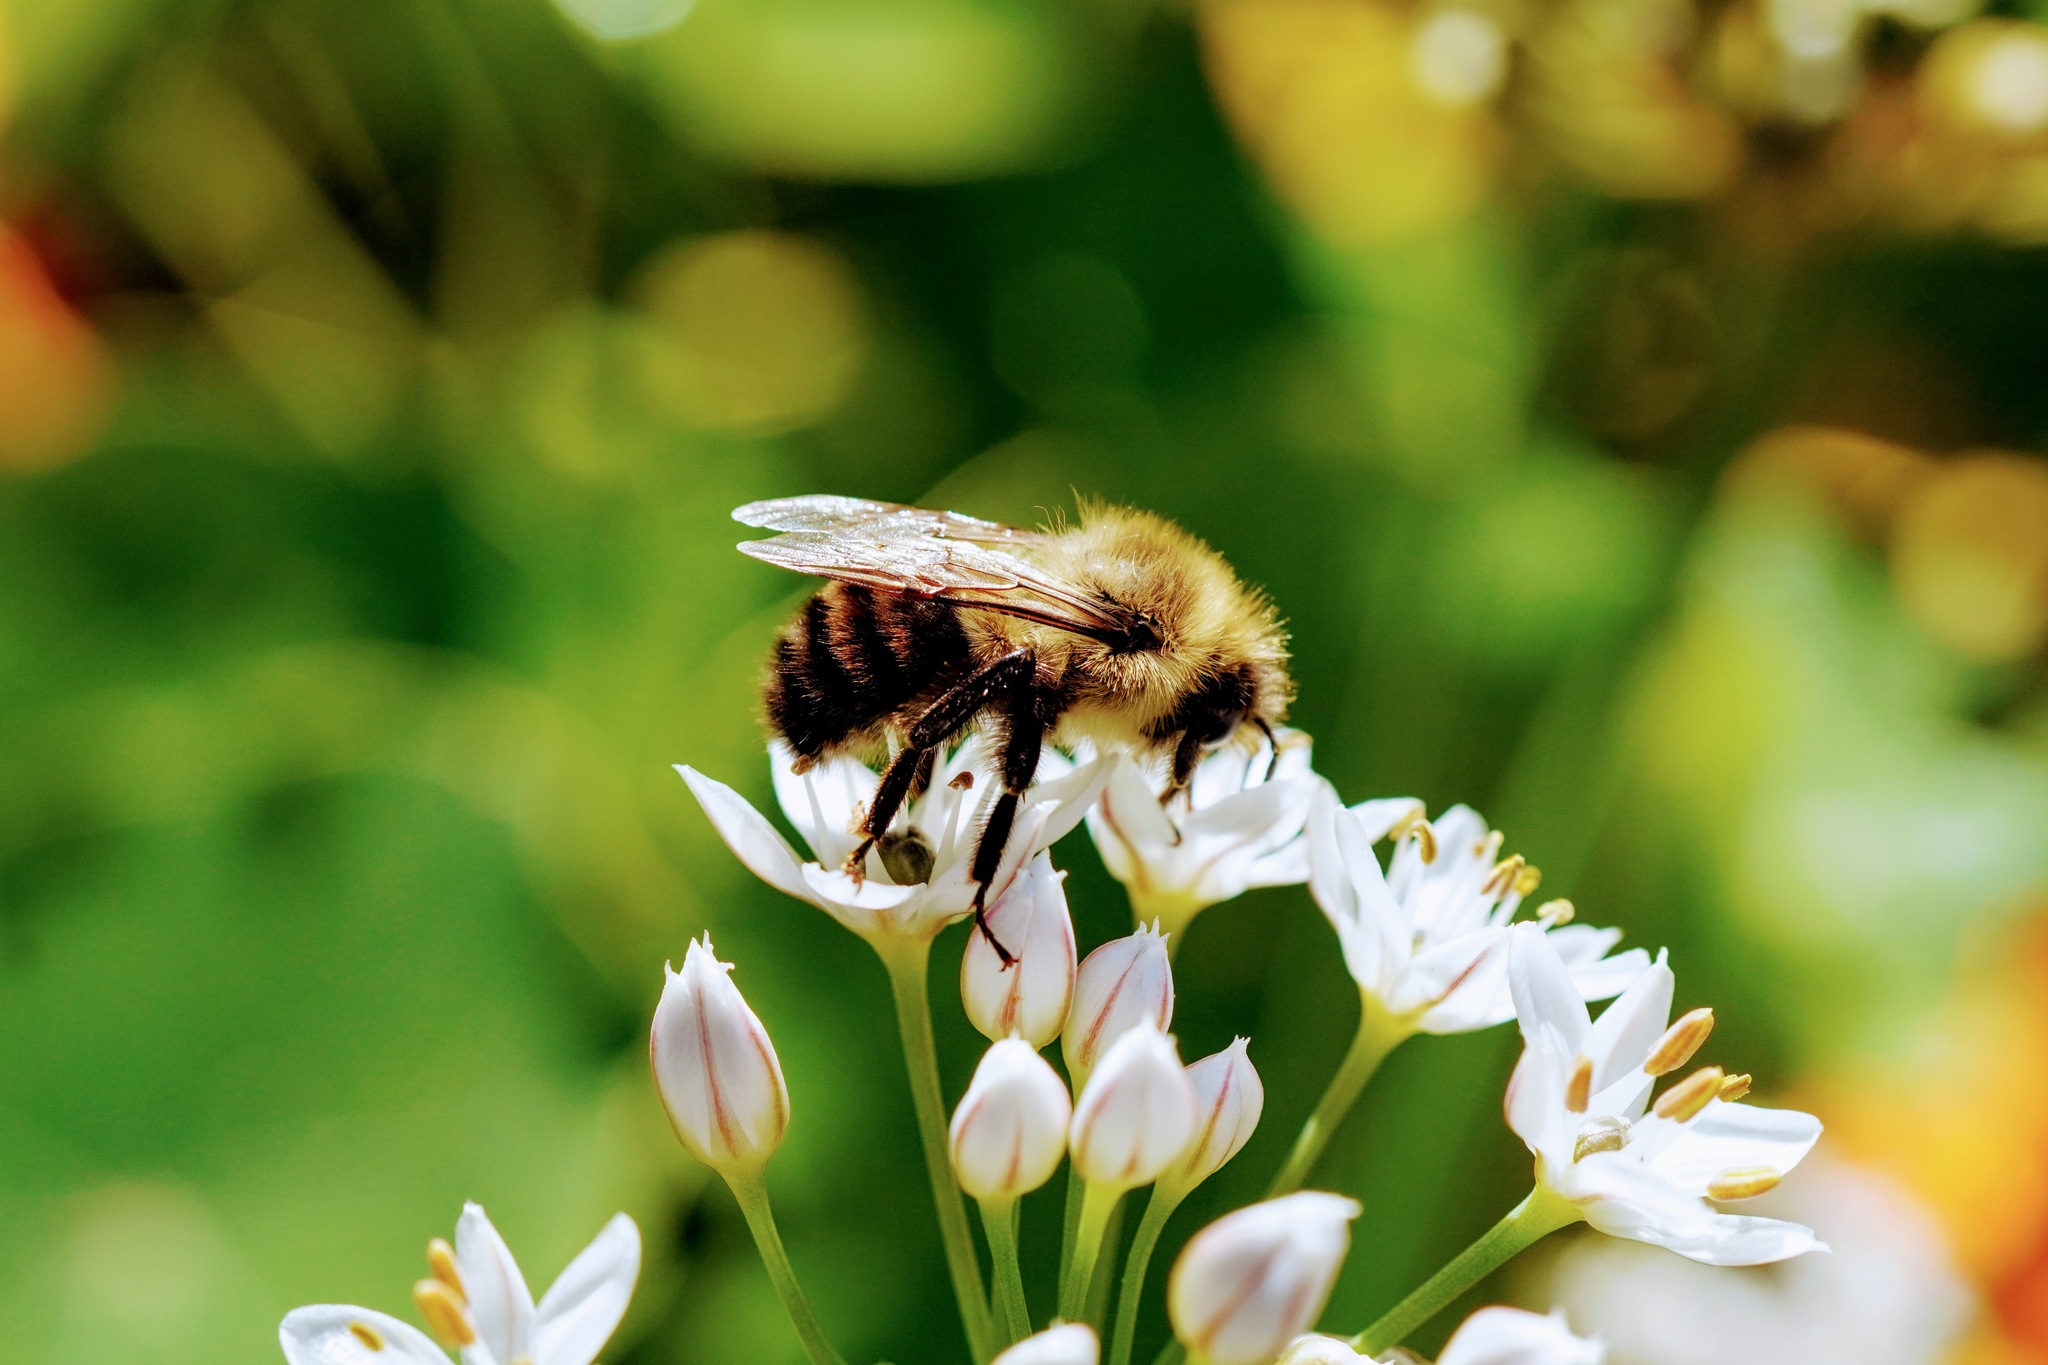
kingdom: Animalia
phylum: Arthropoda
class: Insecta
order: Hymenoptera
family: Apidae
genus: Bombus
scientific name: Bombus impatiens
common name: Common eastern bumble bee
